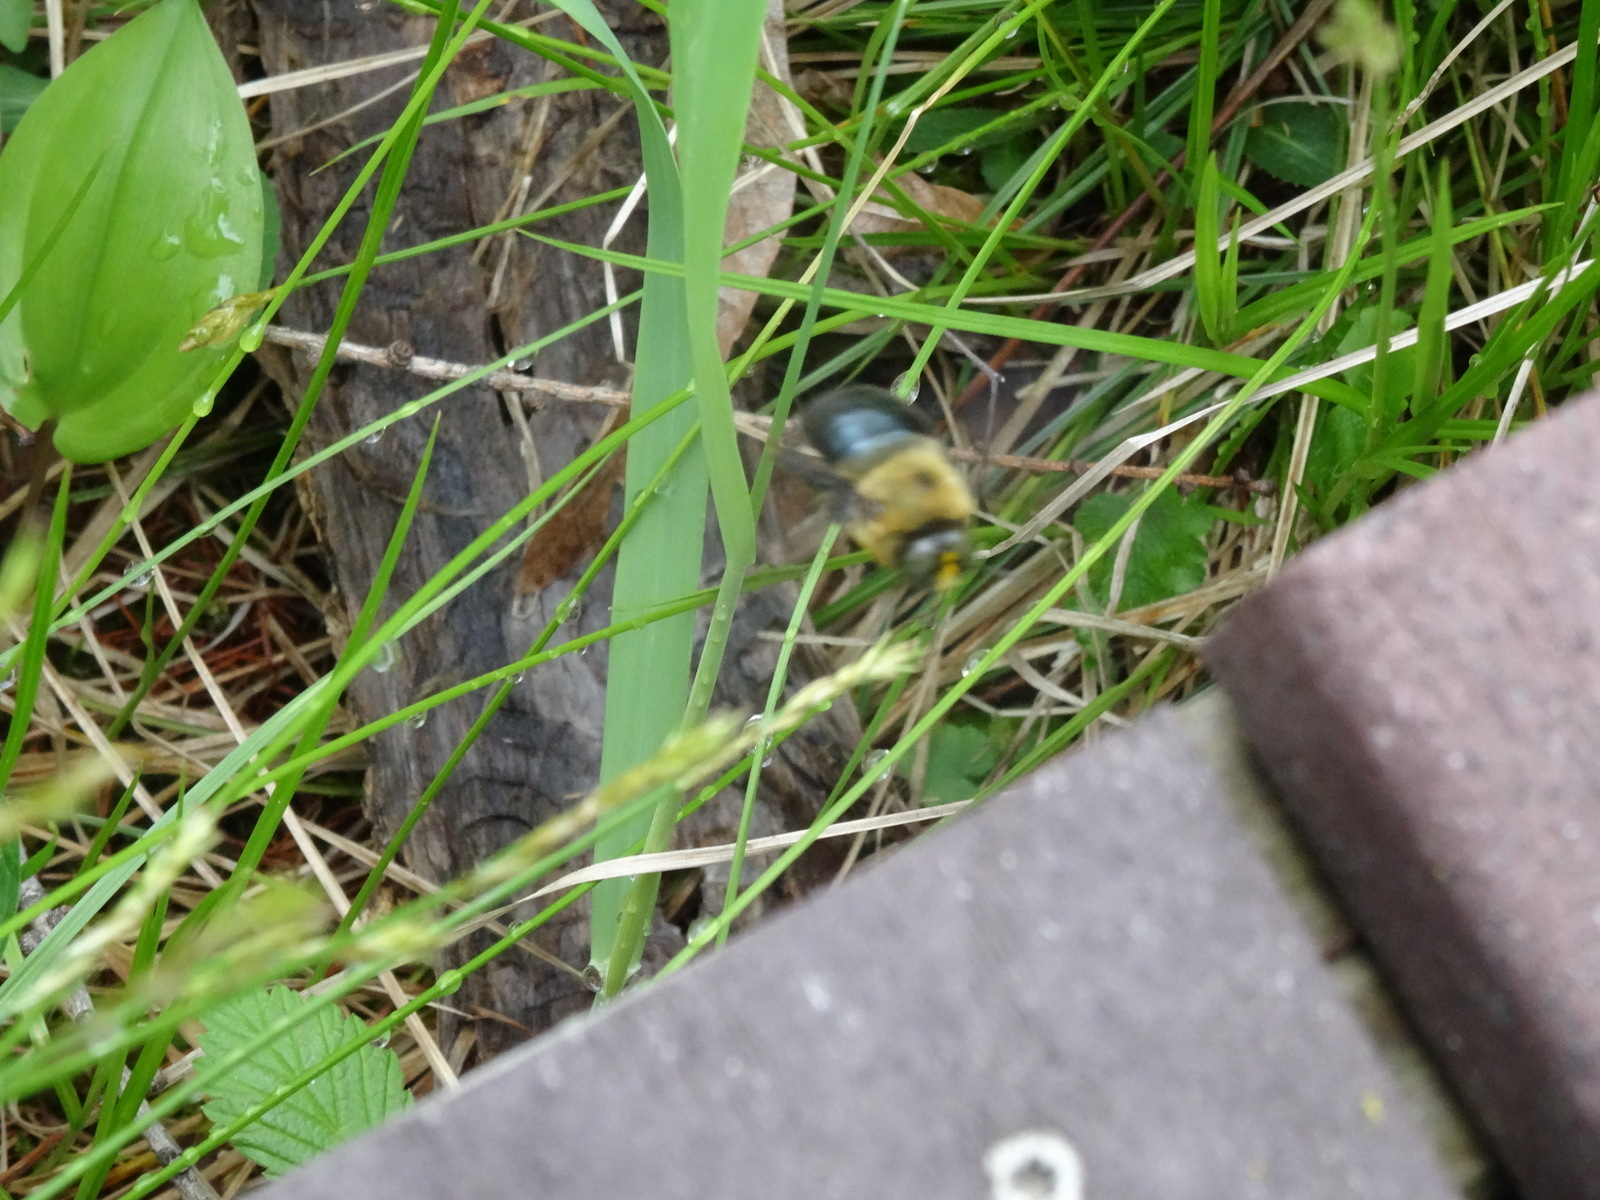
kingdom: Animalia
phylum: Arthropoda
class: Insecta
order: Hymenoptera
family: Apidae
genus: Xylocopa
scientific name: Xylocopa virginica
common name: Carpenter bee
